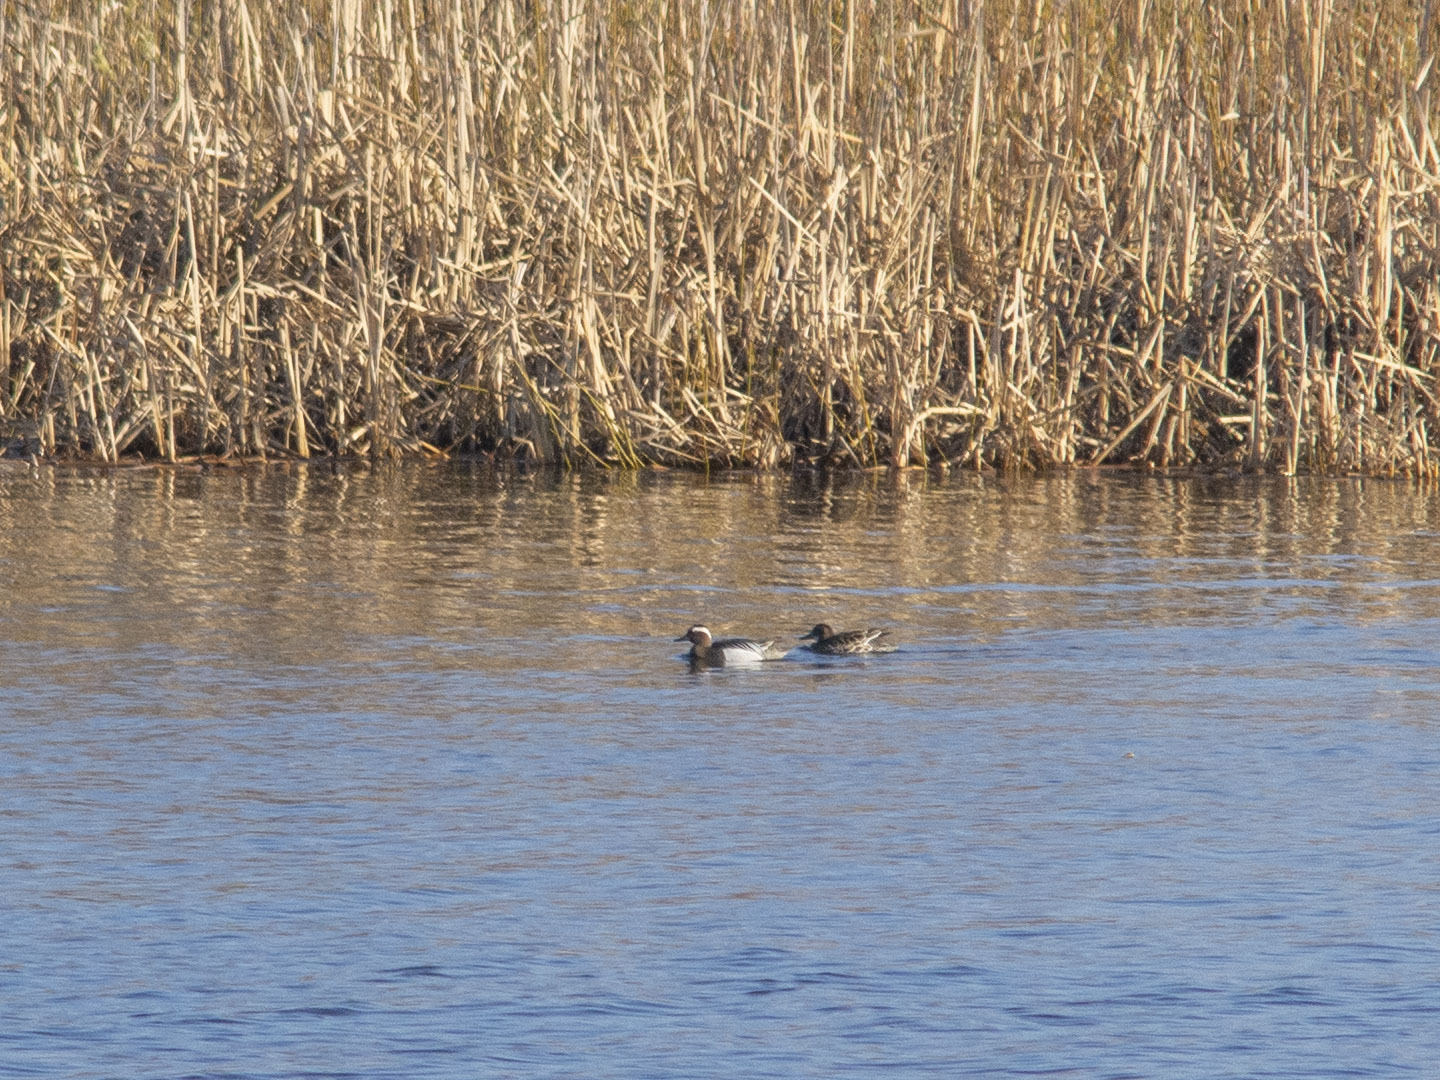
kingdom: Animalia
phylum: Chordata
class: Aves
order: Anseriformes
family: Anatidae
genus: Spatula
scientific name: Spatula querquedula
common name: Garganey
